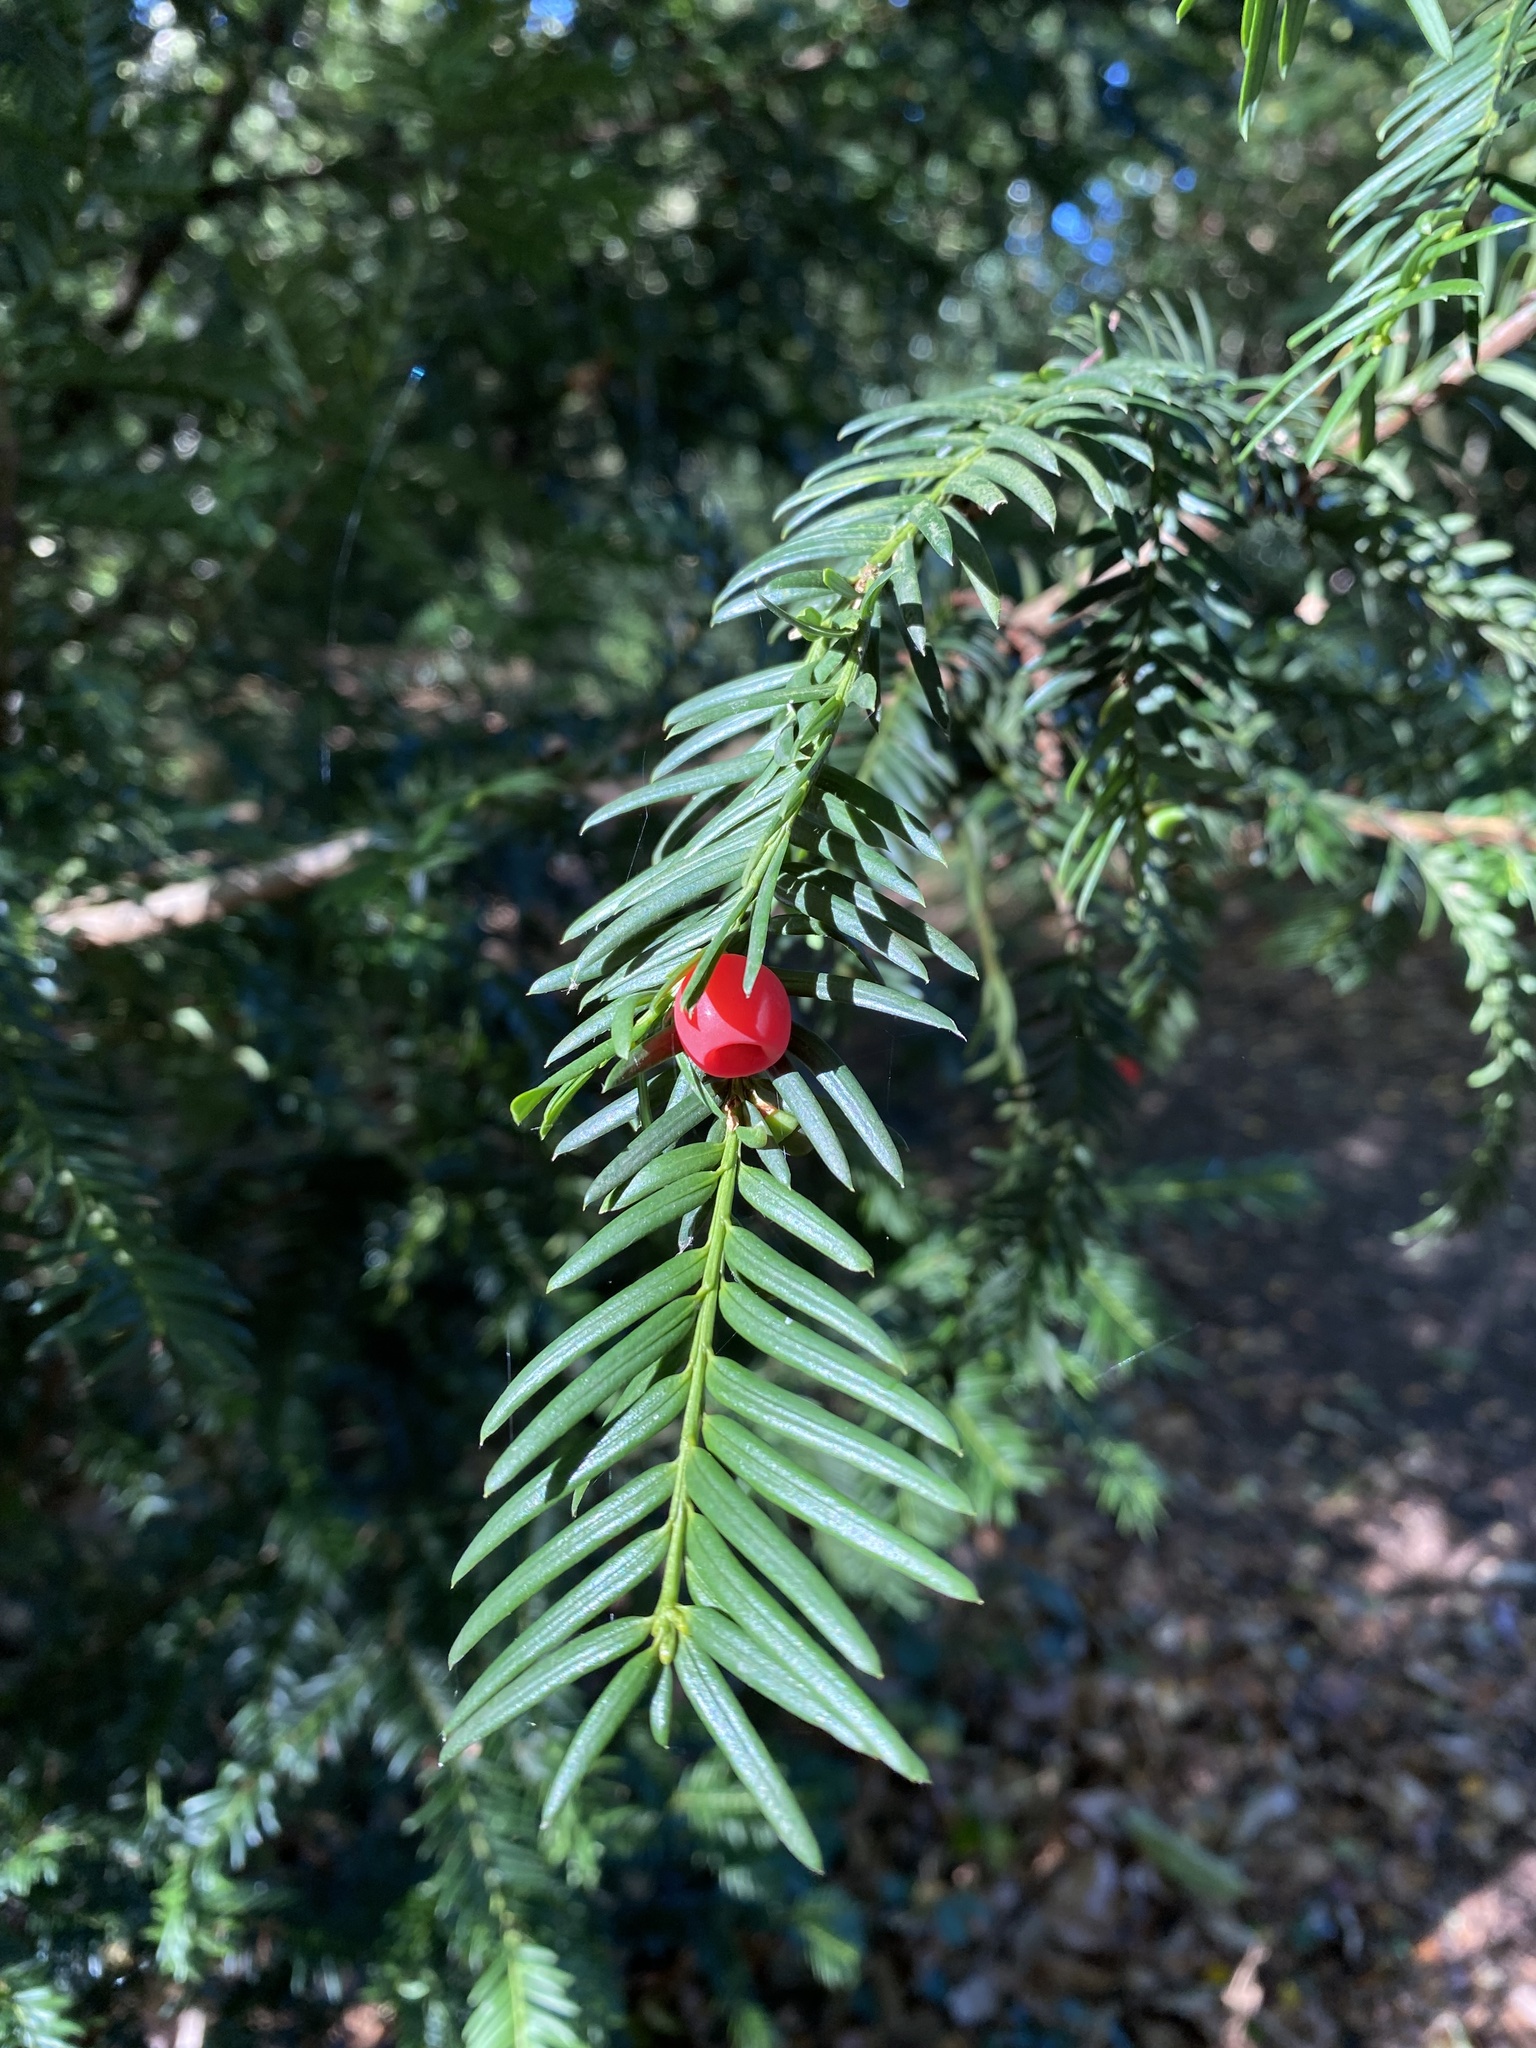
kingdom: Plantae
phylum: Tracheophyta
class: Pinopsida
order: Pinales
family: Taxaceae
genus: Taxus
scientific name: Taxus baccata
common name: Yew
